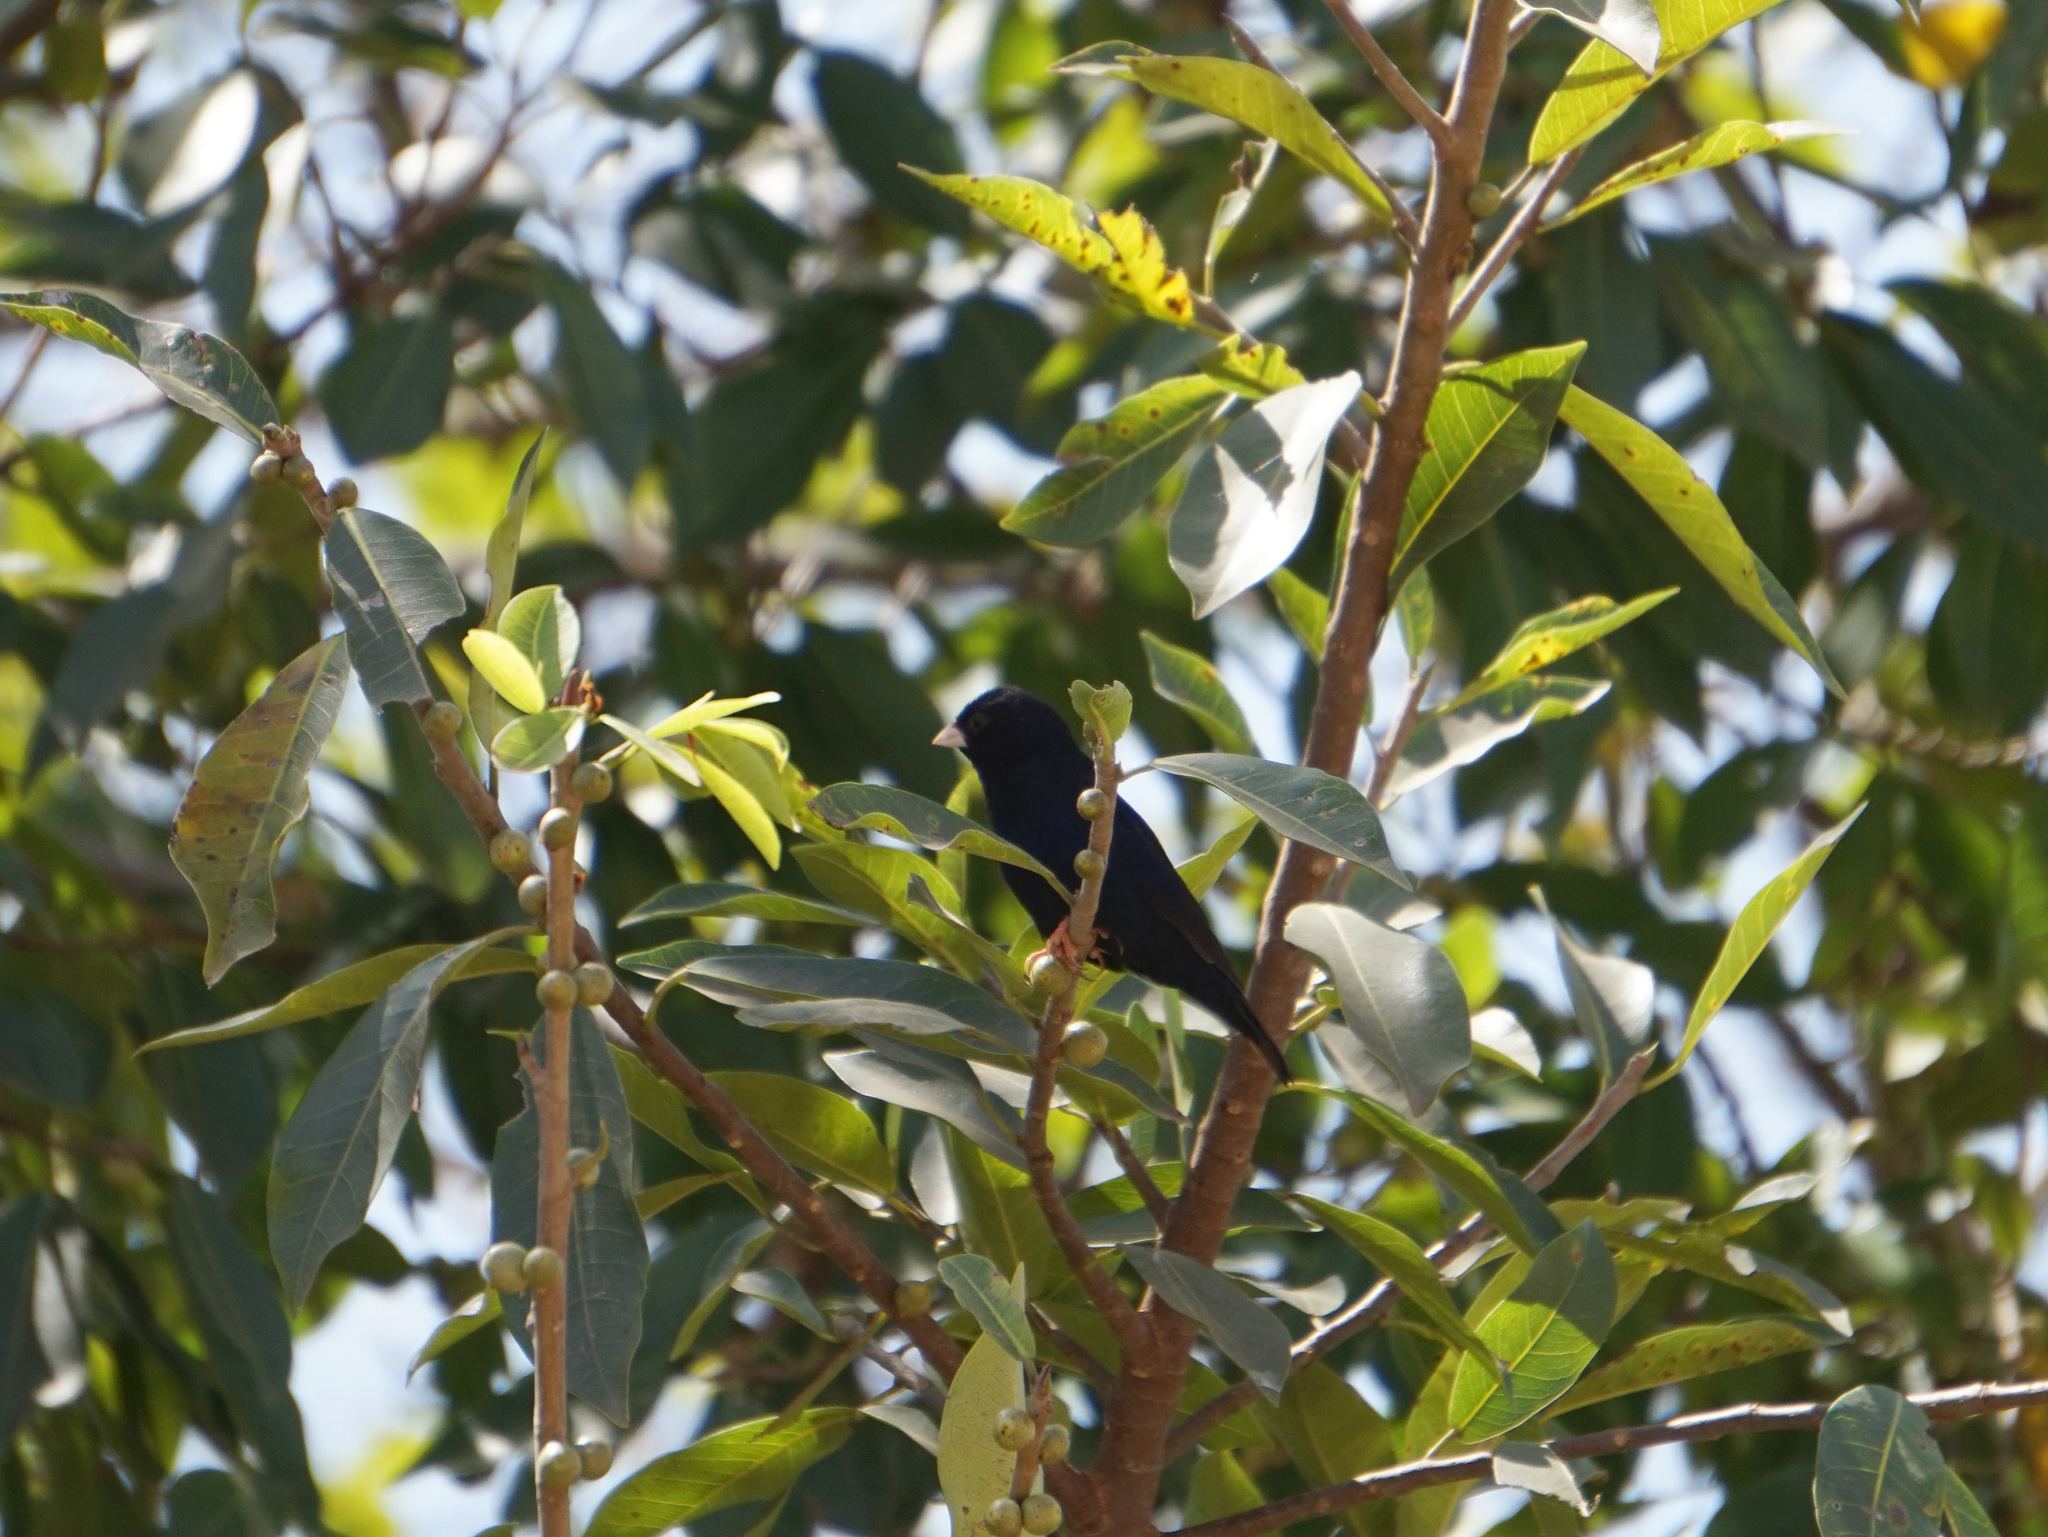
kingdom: Animalia
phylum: Chordata
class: Aves
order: Passeriformes
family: Viduidae
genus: Vidua
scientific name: Vidua chalybeata
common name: Village indigobird
